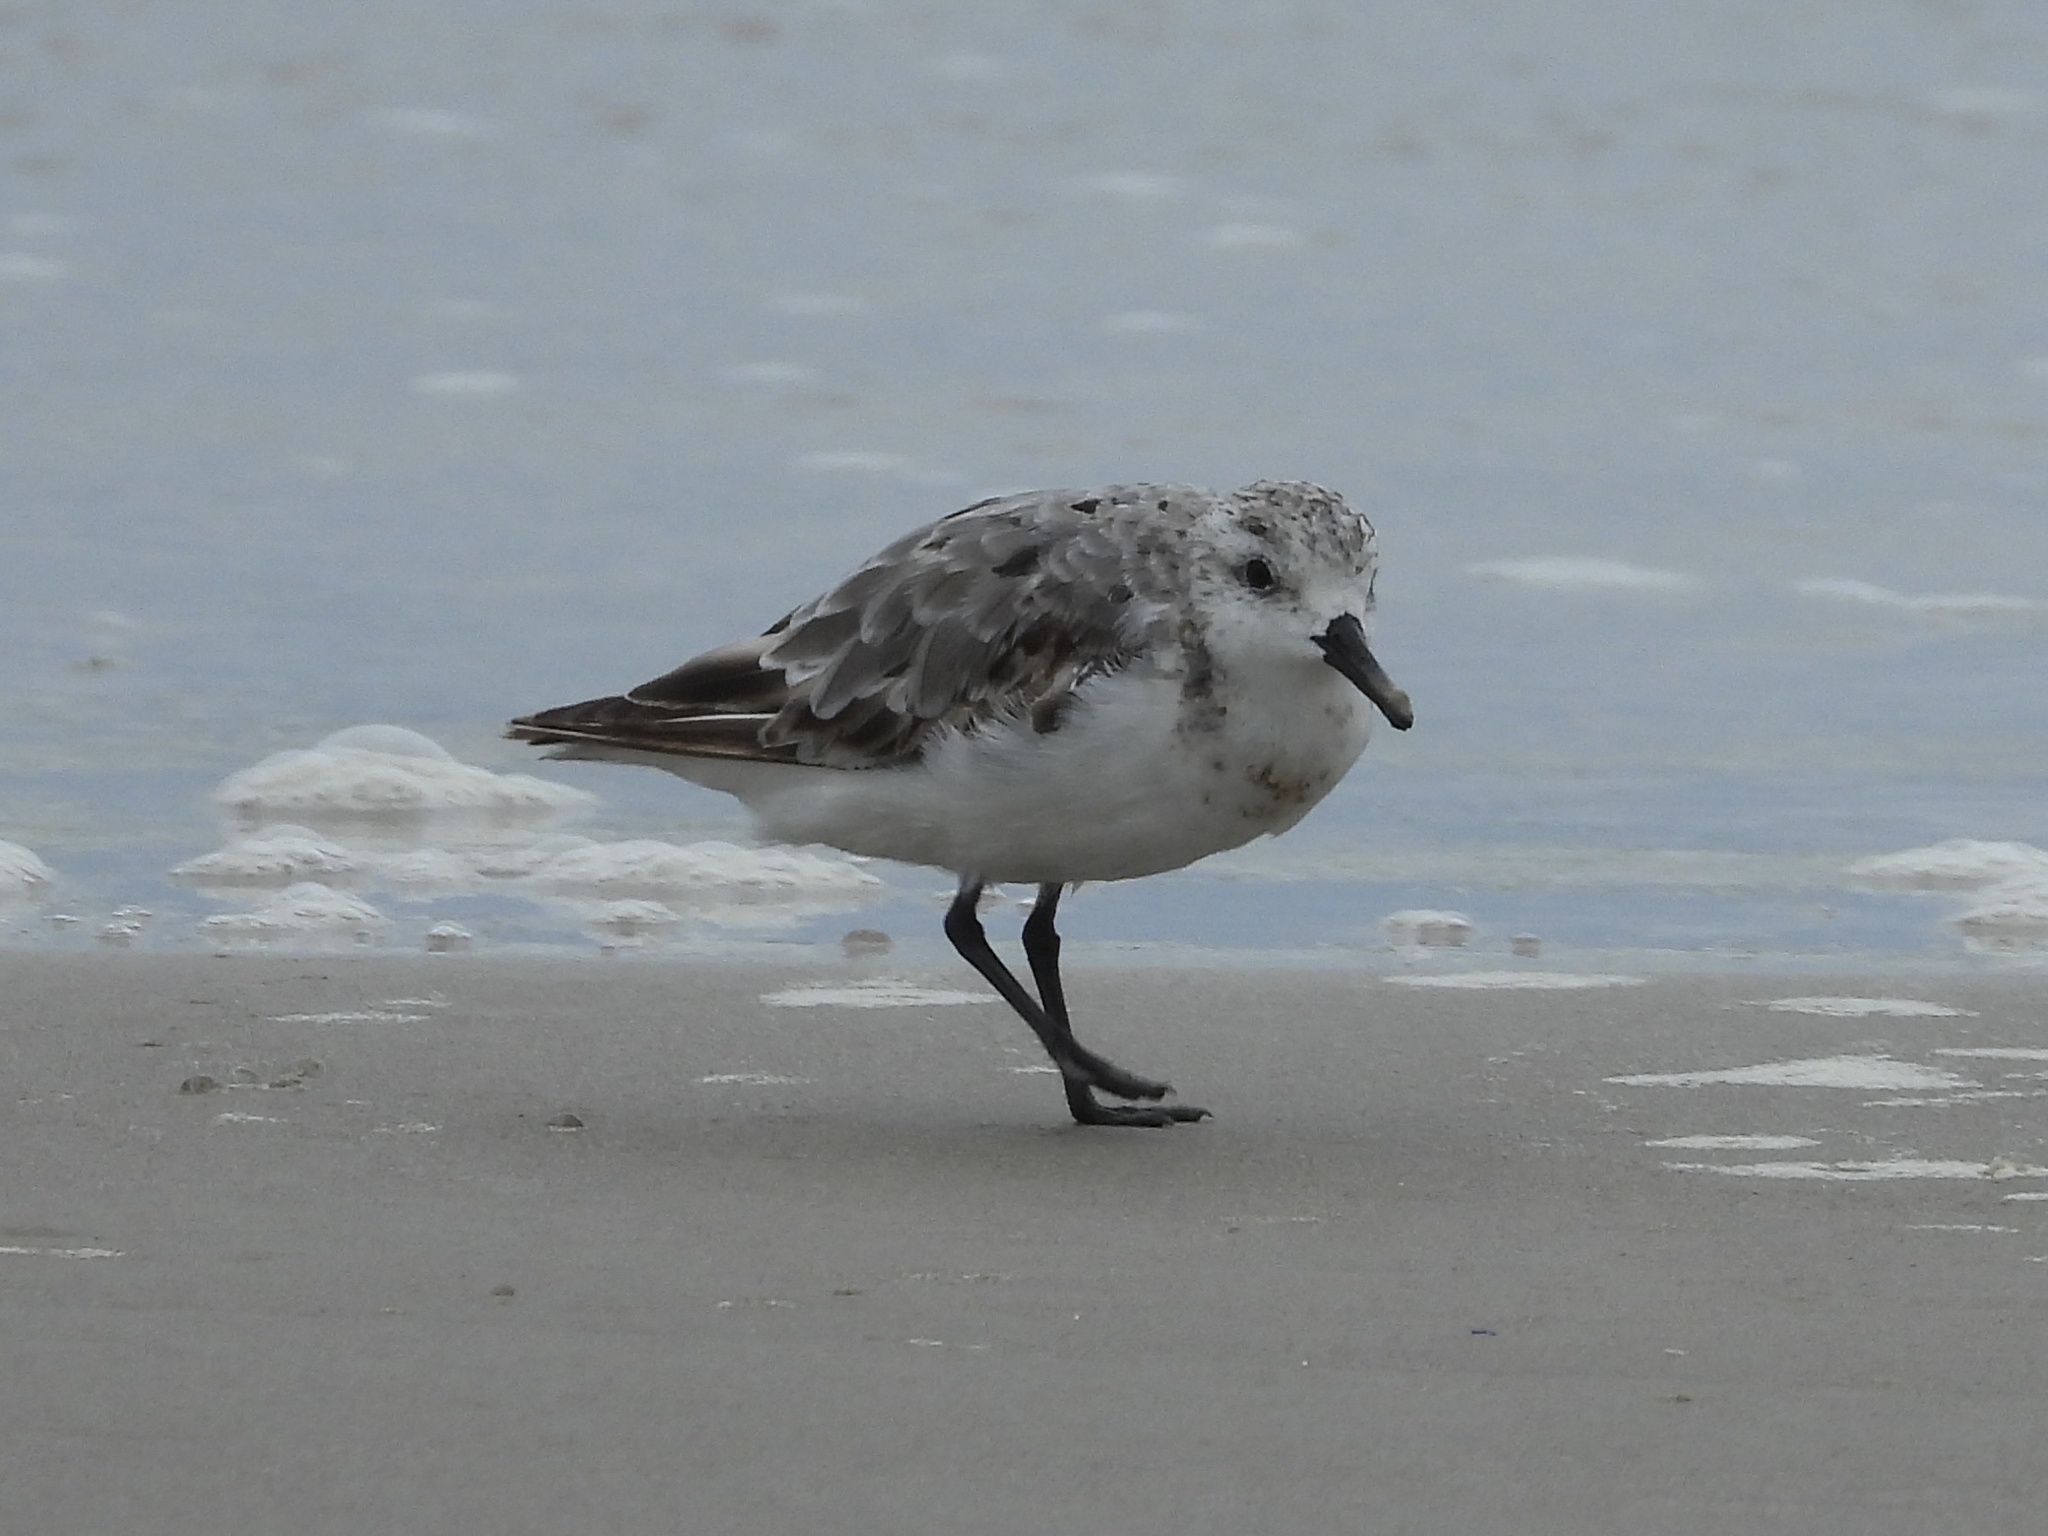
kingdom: Animalia
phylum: Chordata
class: Aves
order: Charadriiformes
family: Scolopacidae
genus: Calidris
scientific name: Calidris alba
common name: Sanderling
